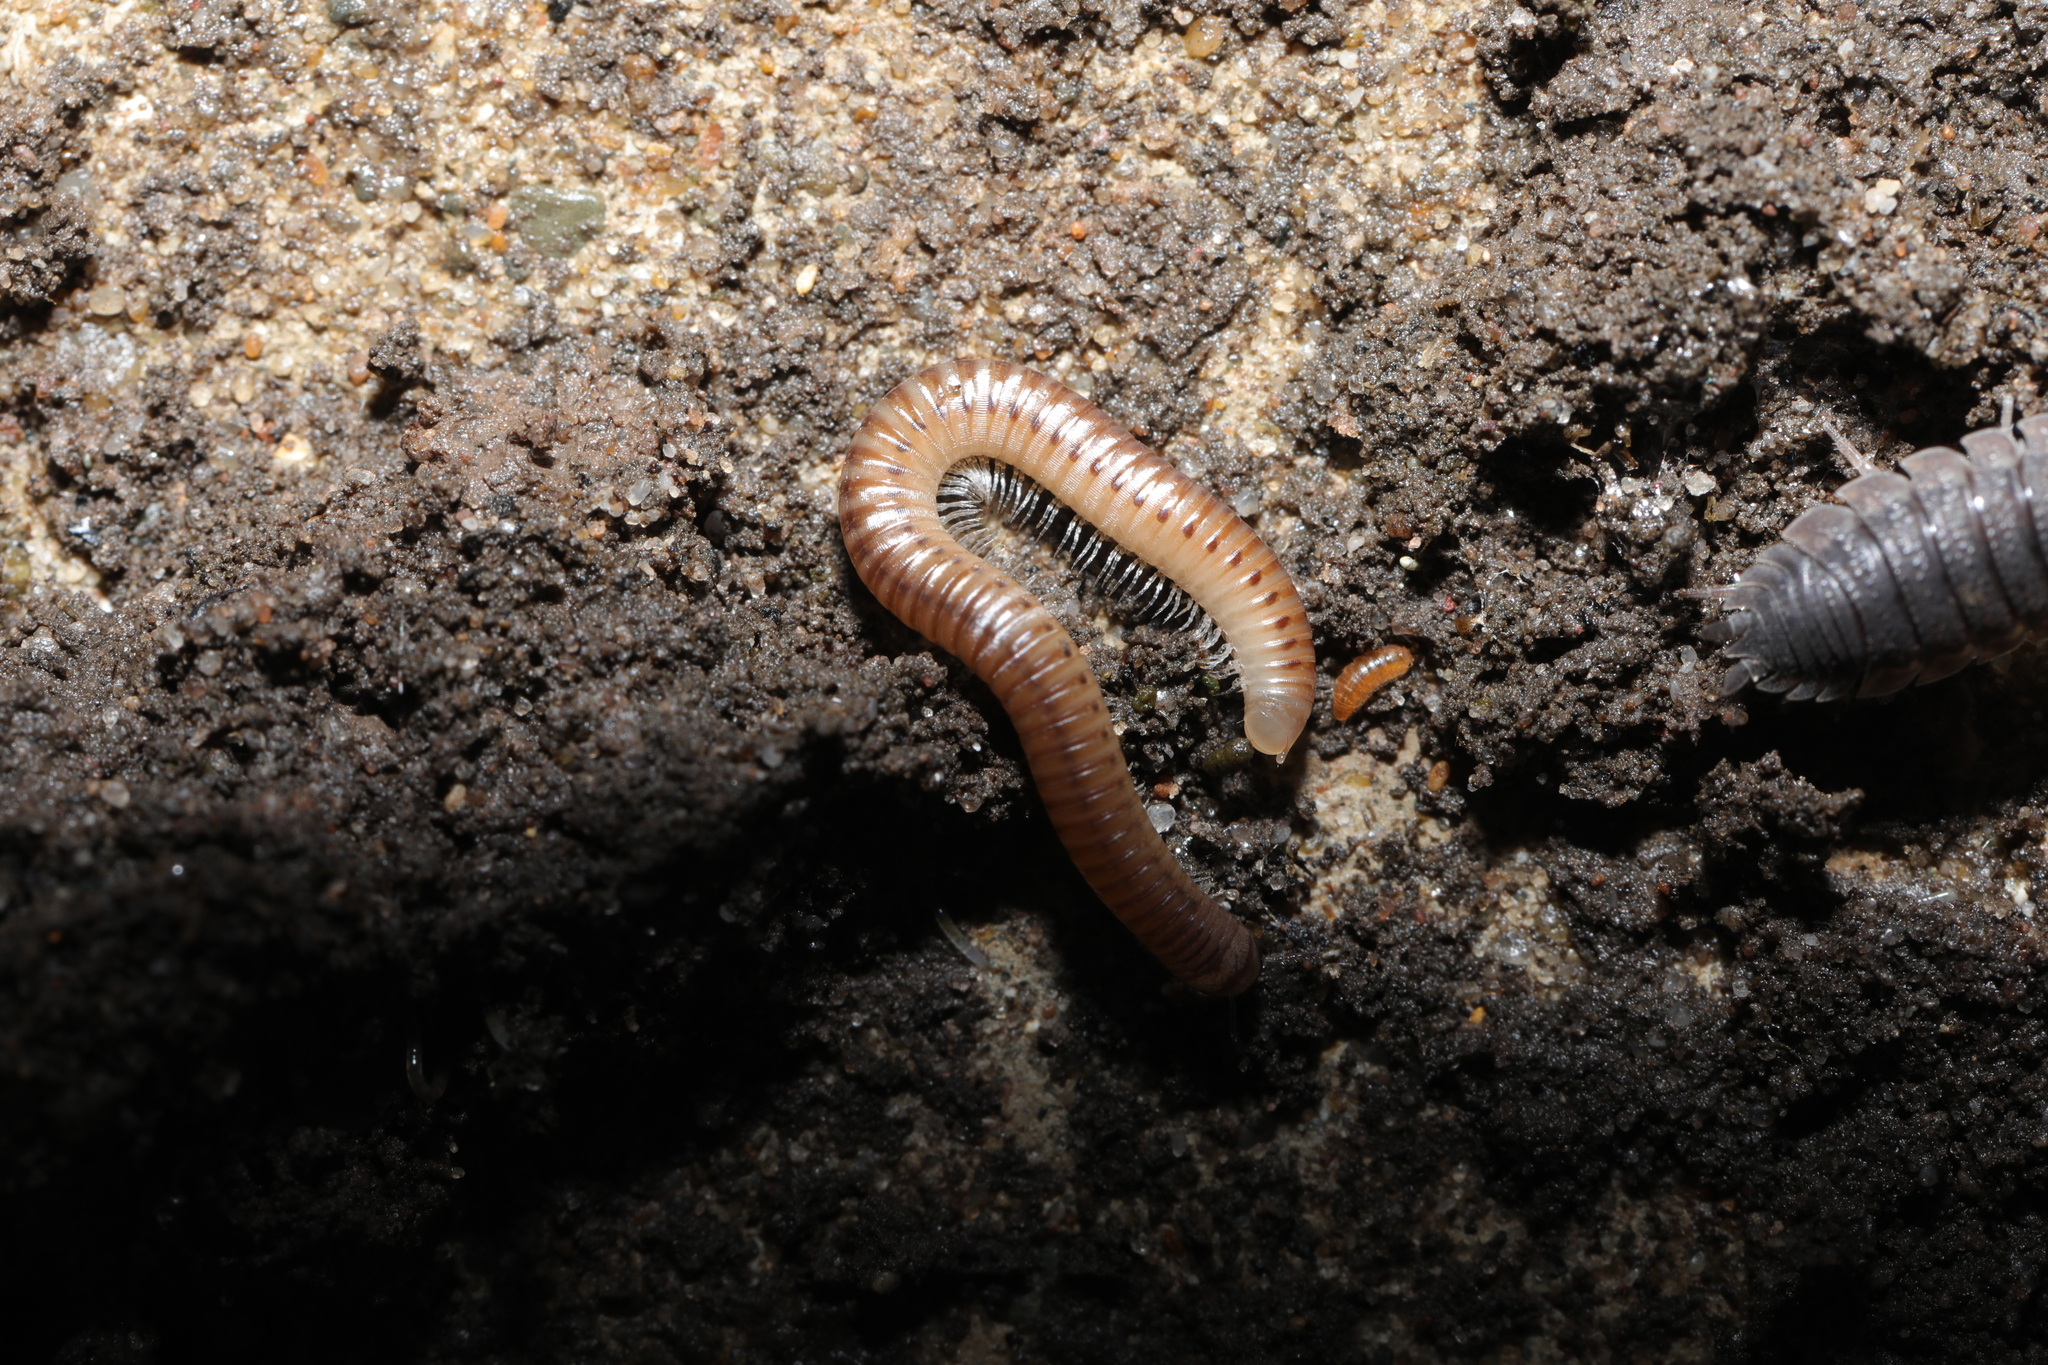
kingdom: Animalia
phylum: Arthropoda
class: Malacostraca
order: Isopoda
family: Trichoniscidae
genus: Trichoniscus
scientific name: Trichoniscus
